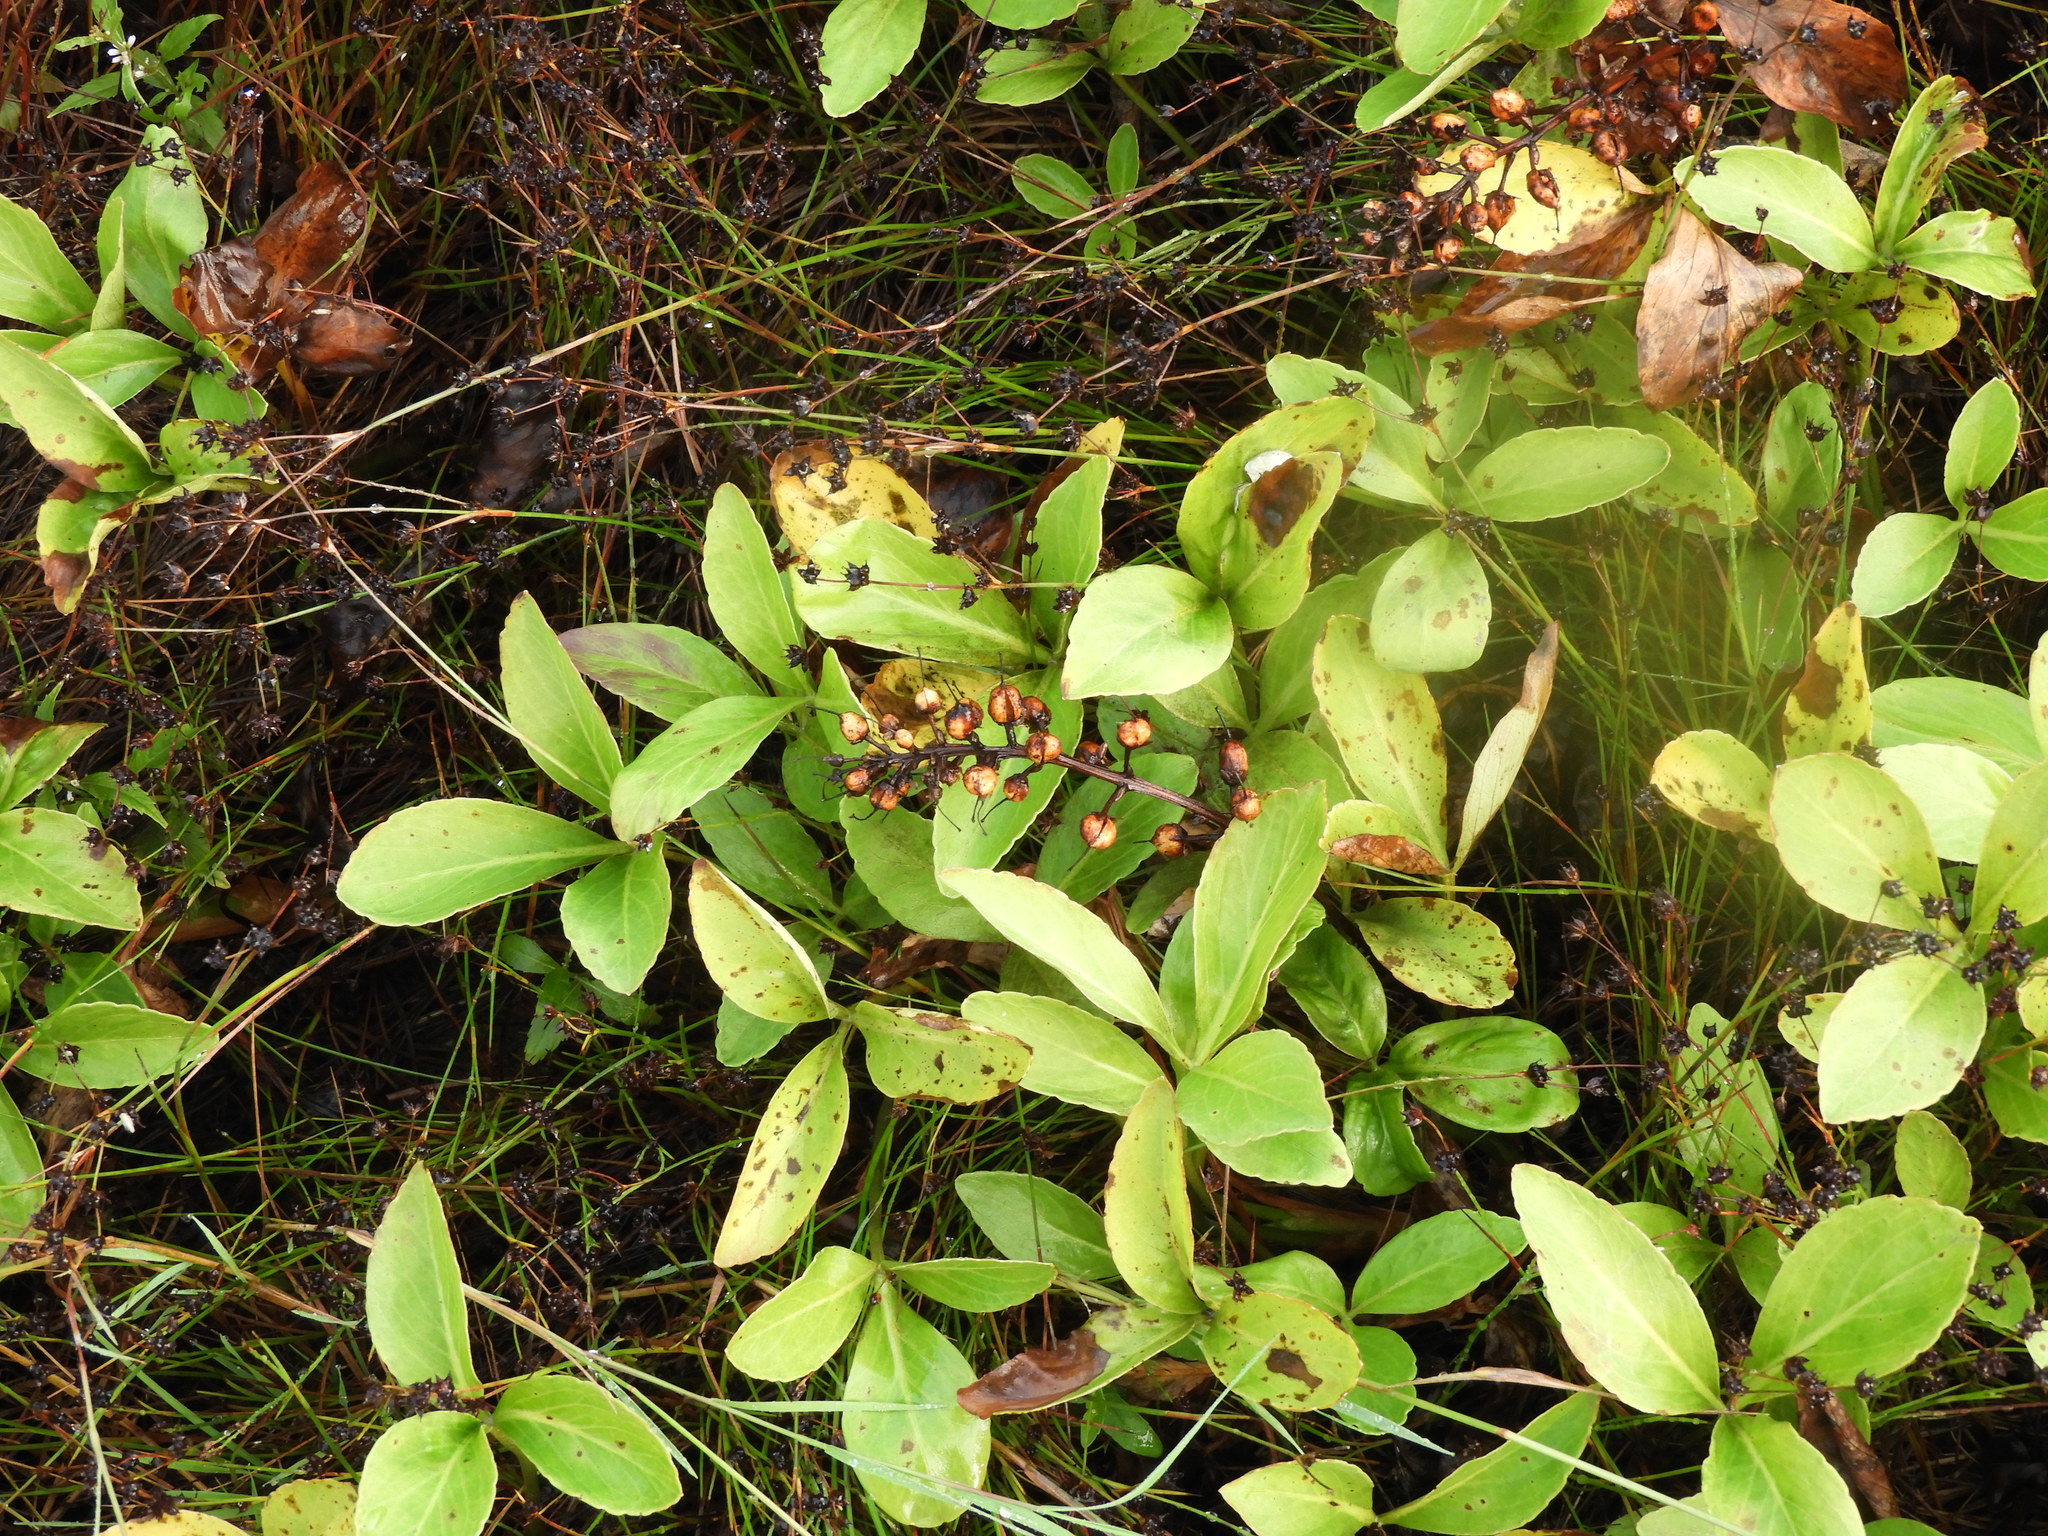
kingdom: Plantae
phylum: Tracheophyta
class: Magnoliopsida
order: Asterales
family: Menyanthaceae
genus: Menyanthes
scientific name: Menyanthes trifoliata
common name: Bogbean
